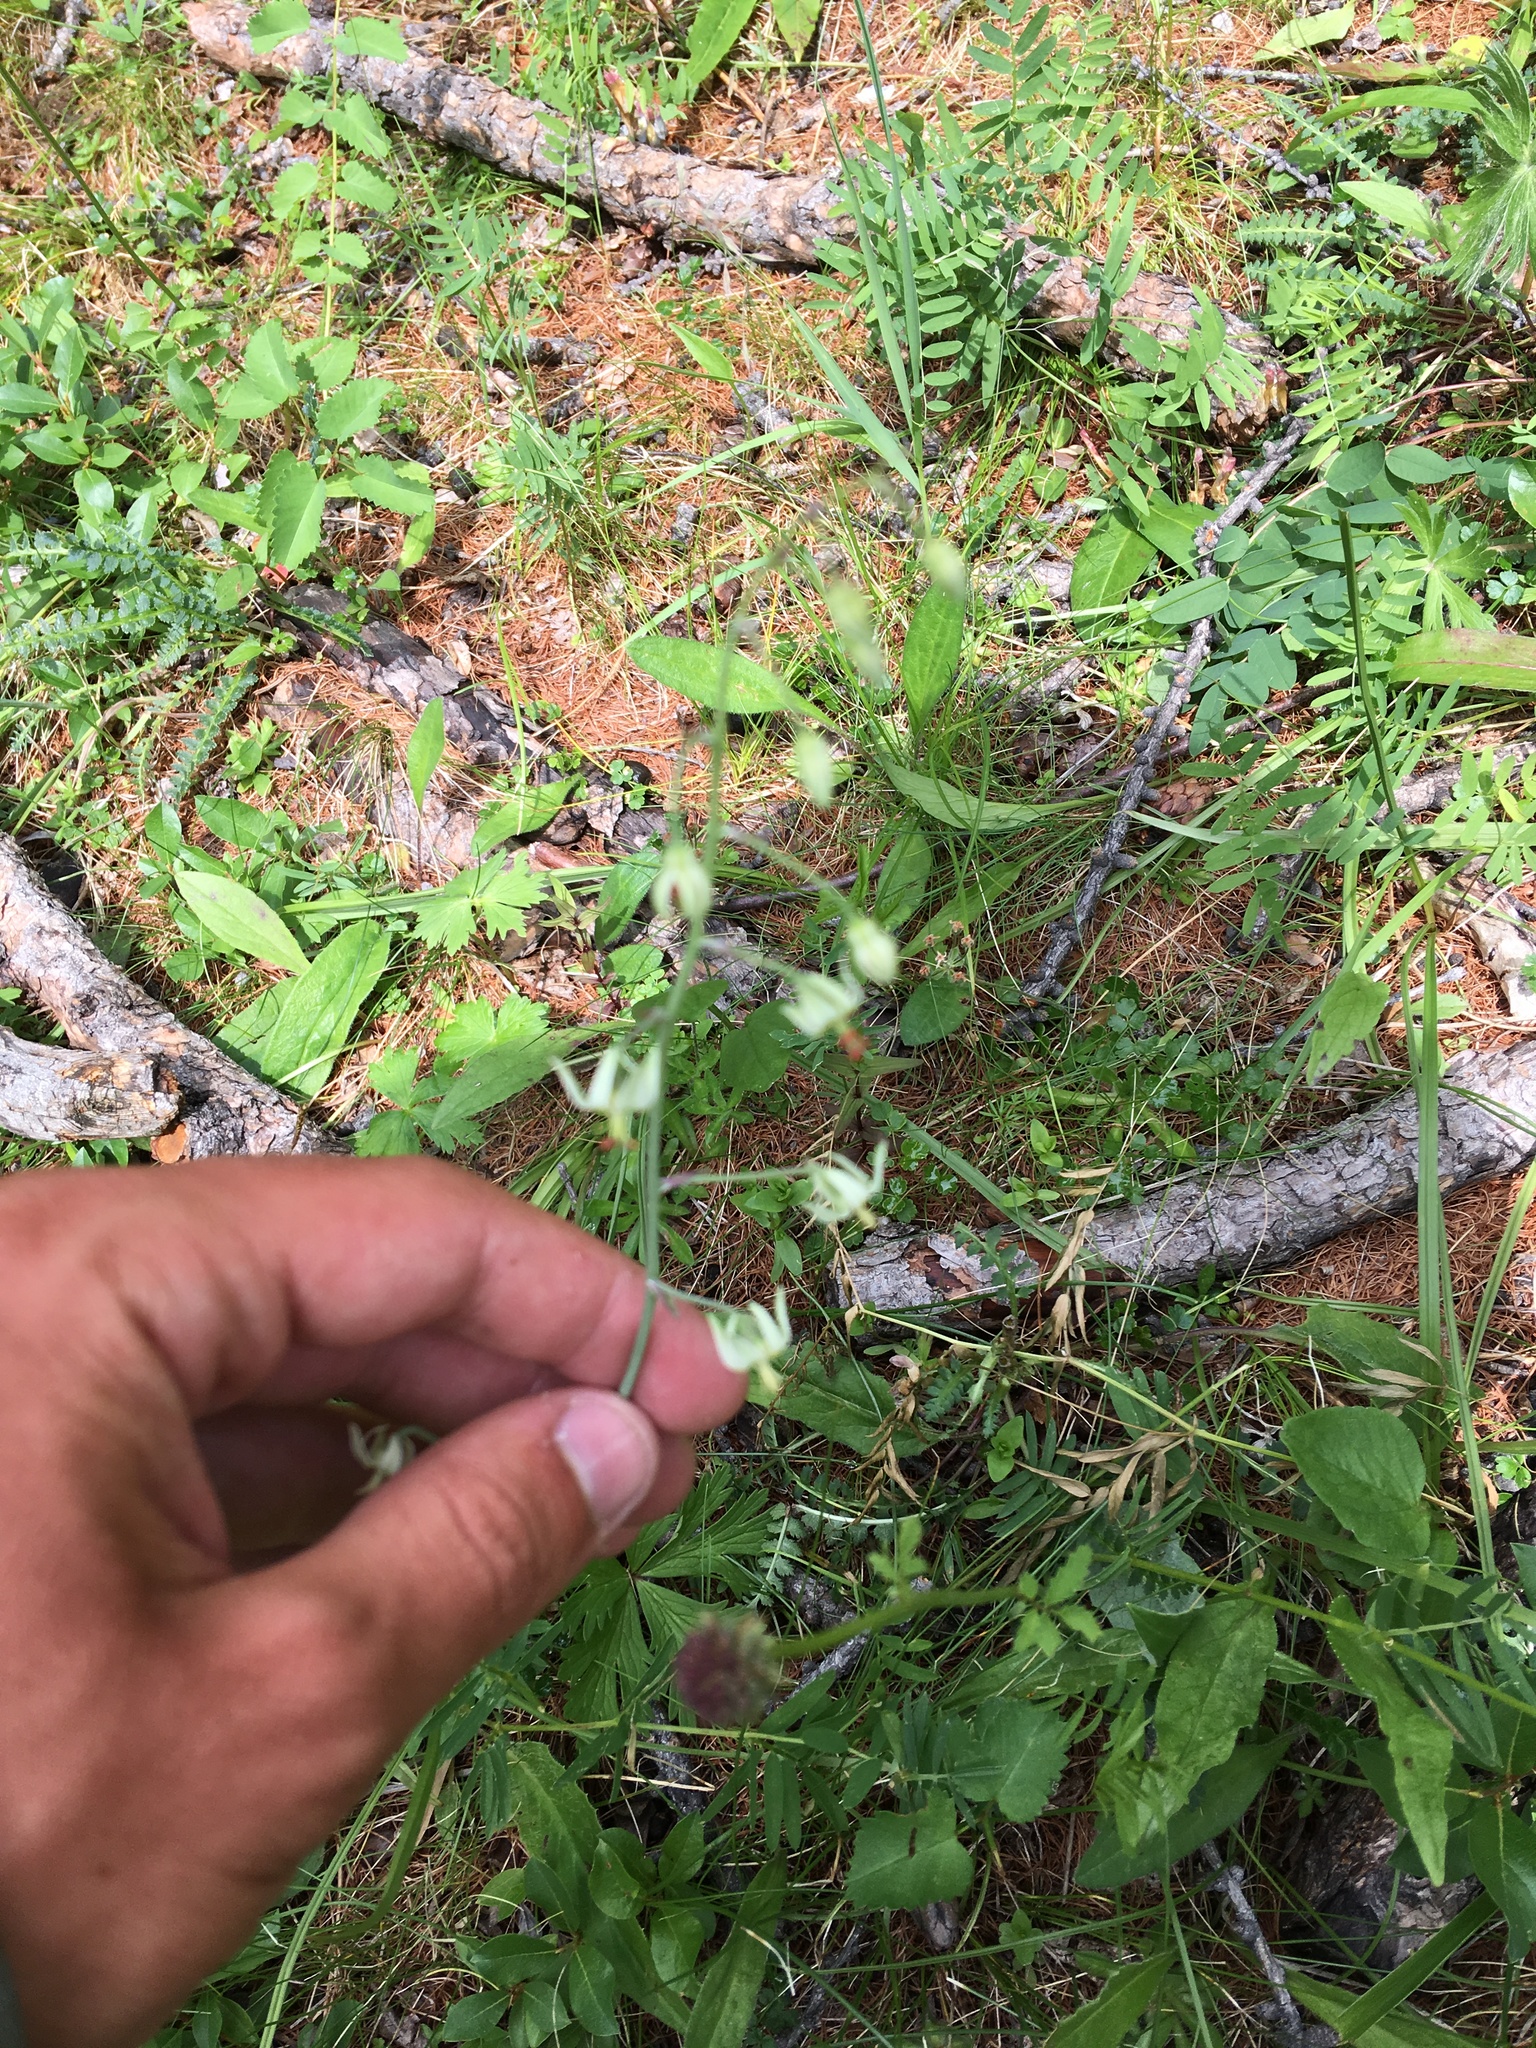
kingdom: Plantae
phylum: Tracheophyta
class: Liliopsida
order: Liliales
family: Melanthiaceae
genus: Anticlea
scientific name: Anticlea sibirica
